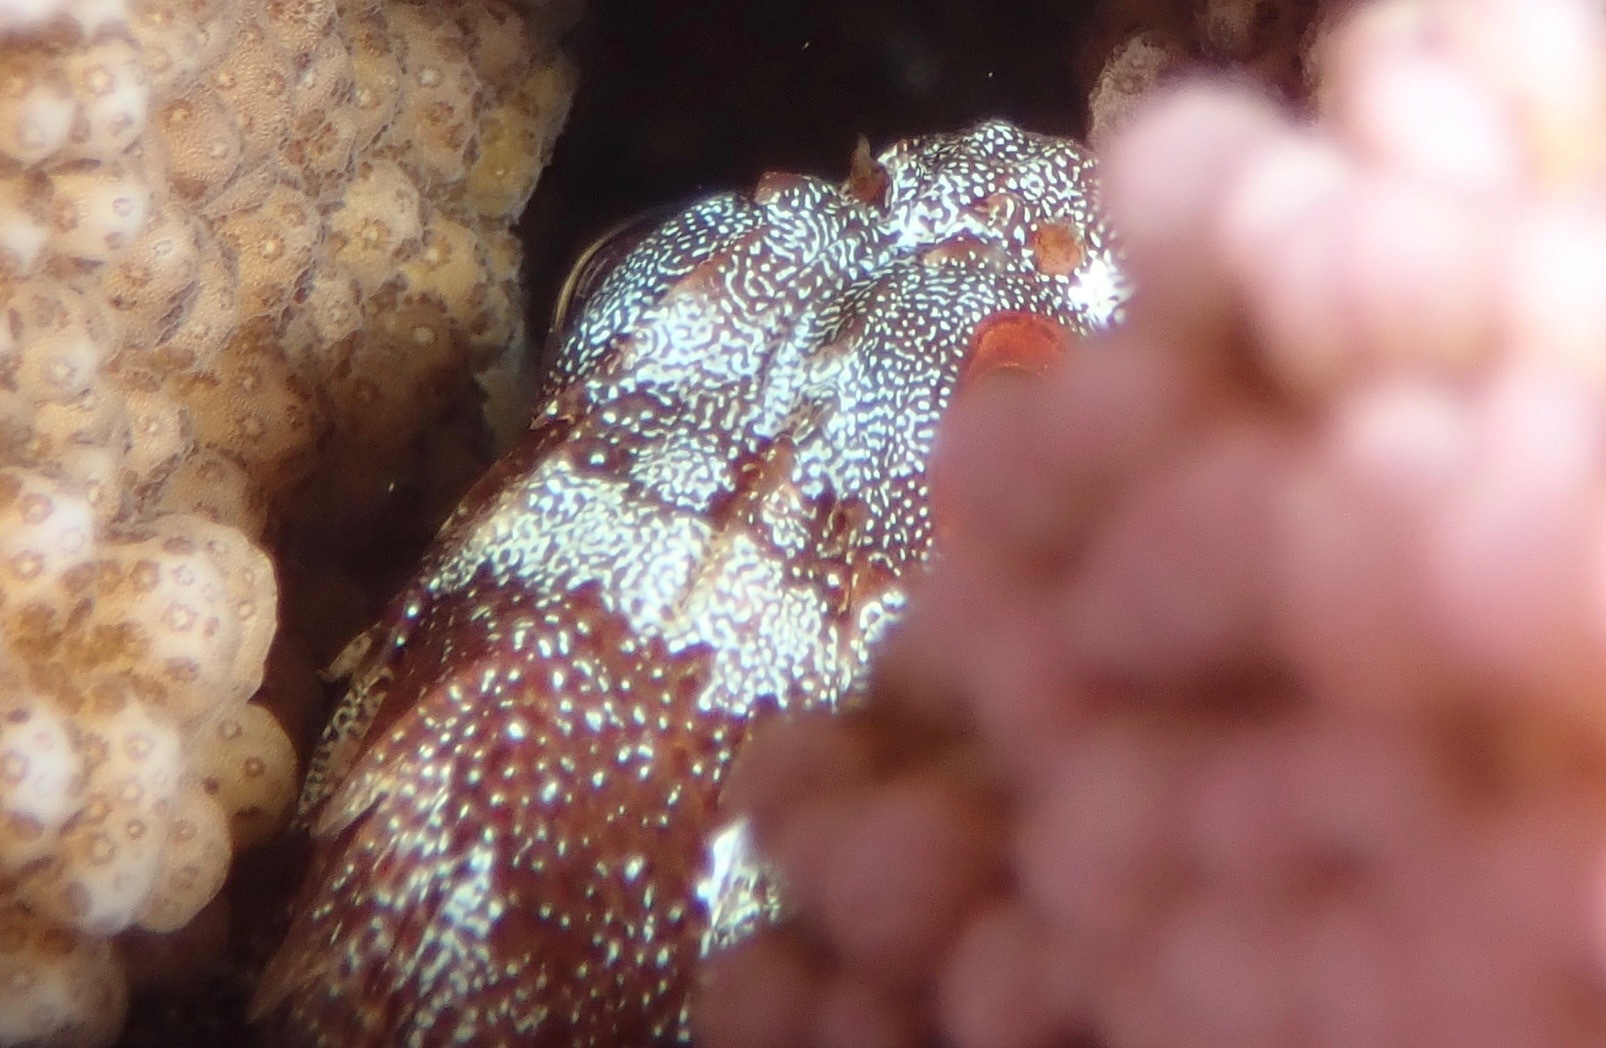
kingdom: Animalia
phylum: Chordata
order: Scorpaeniformes
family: Scorpaenidae
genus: Sebastapistes
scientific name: Sebastapistes tinkhami
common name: Darkspotted scorpionfish
